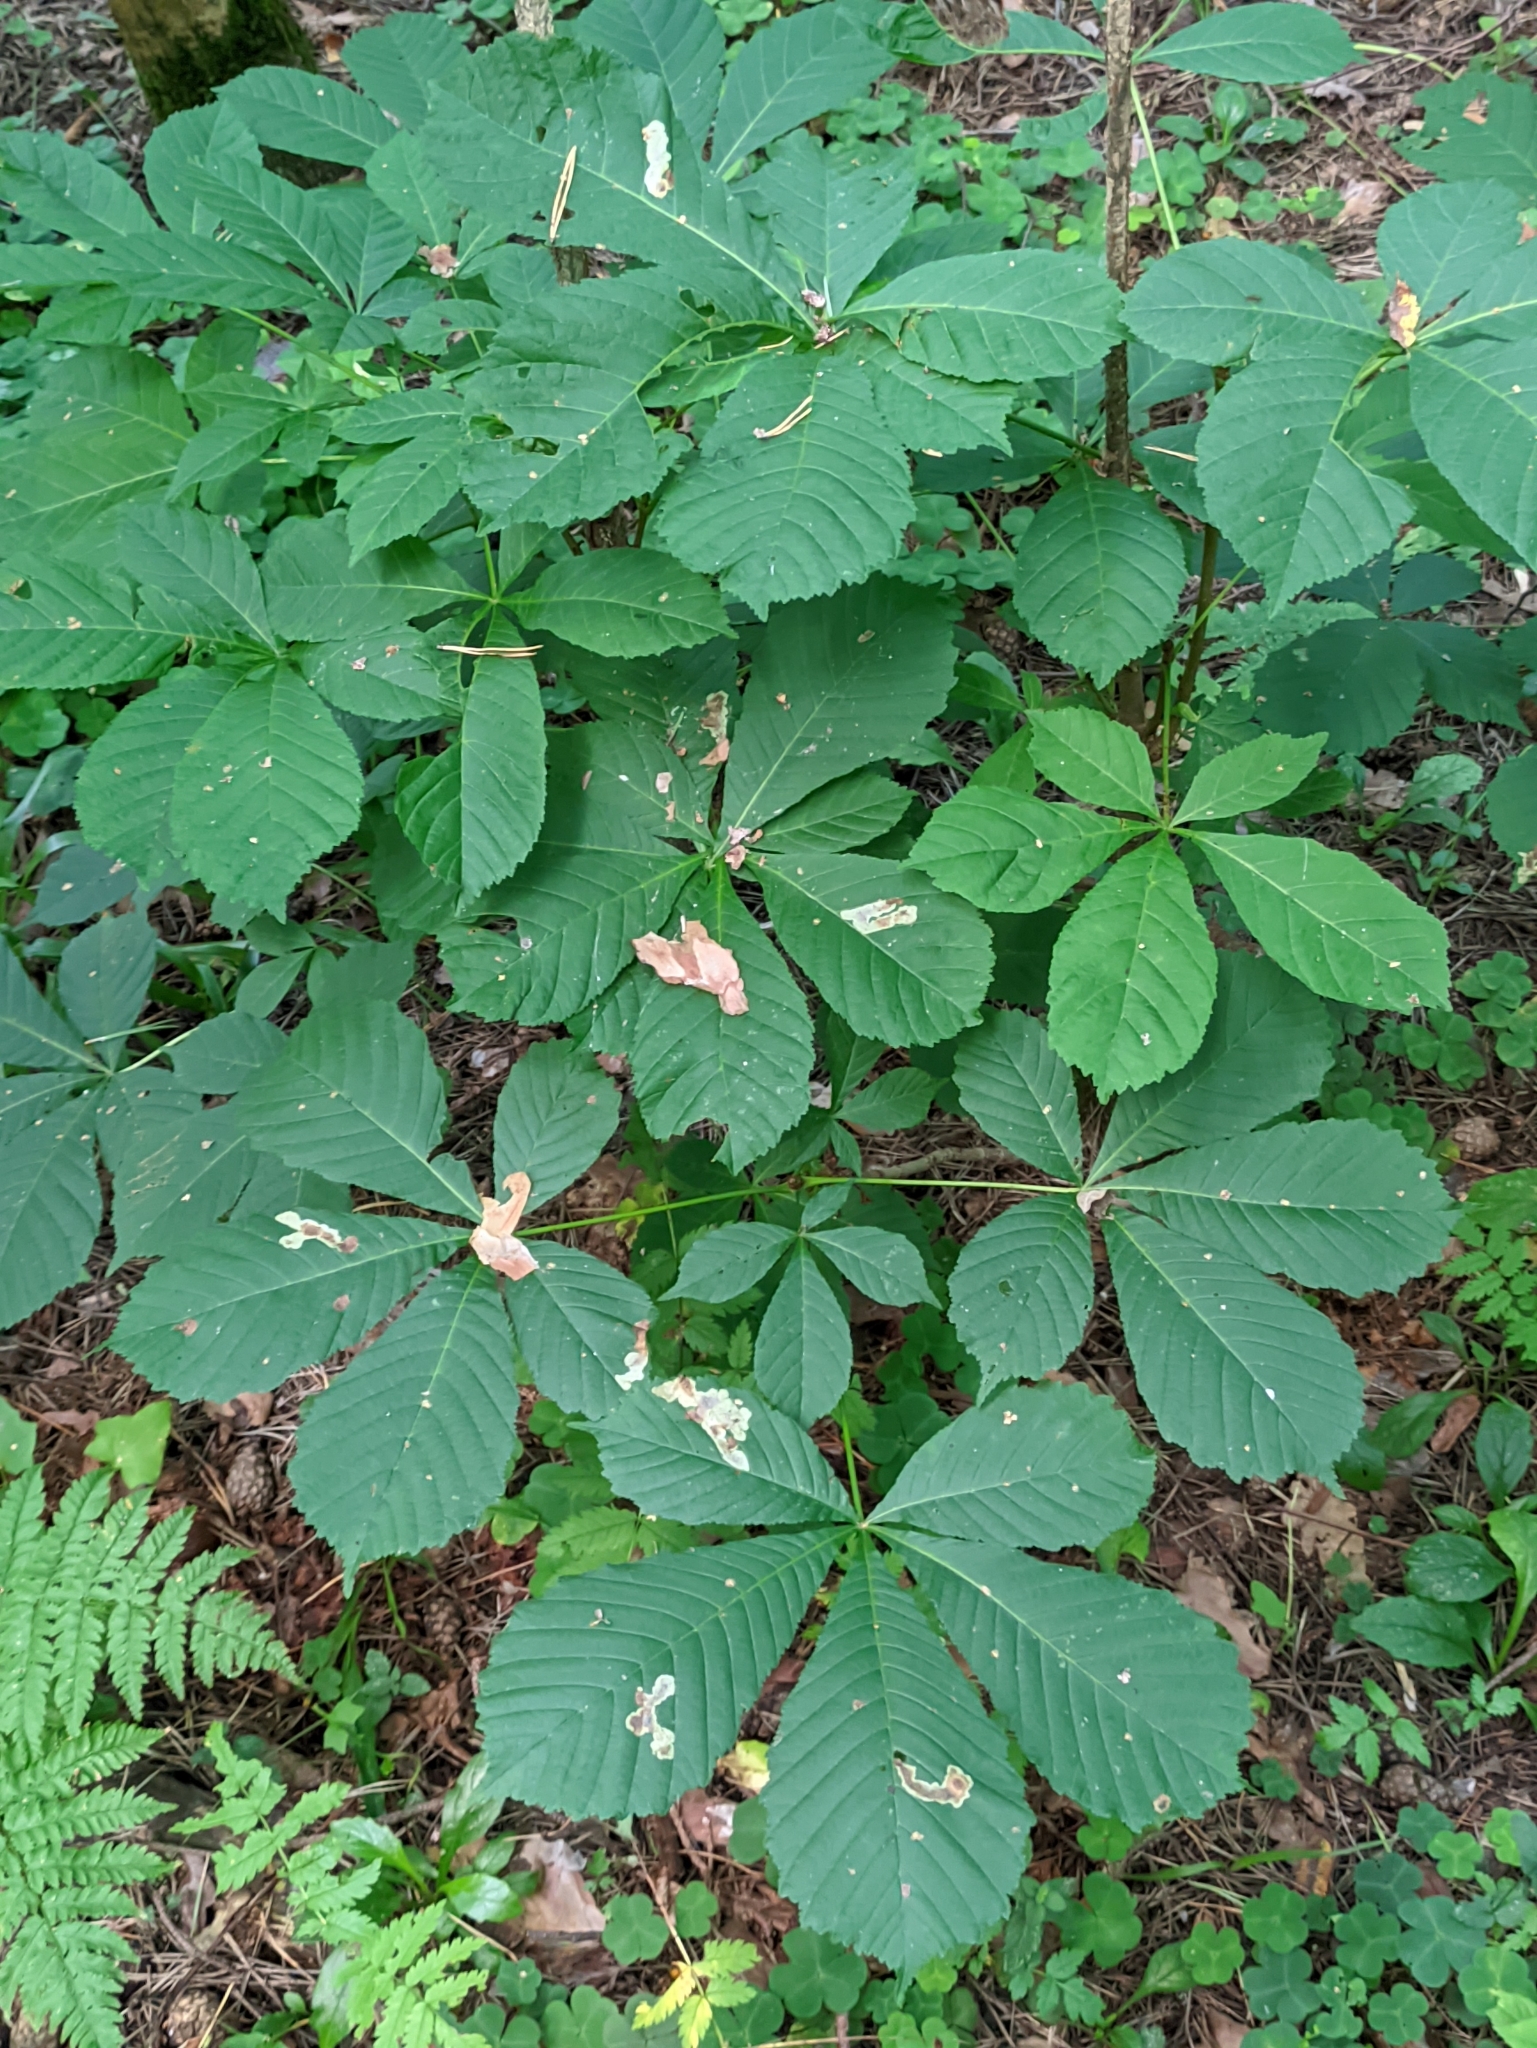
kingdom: Plantae
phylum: Tracheophyta
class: Magnoliopsida
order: Sapindales
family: Sapindaceae
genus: Aesculus
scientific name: Aesculus hippocastanum
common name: Horse-chestnut
